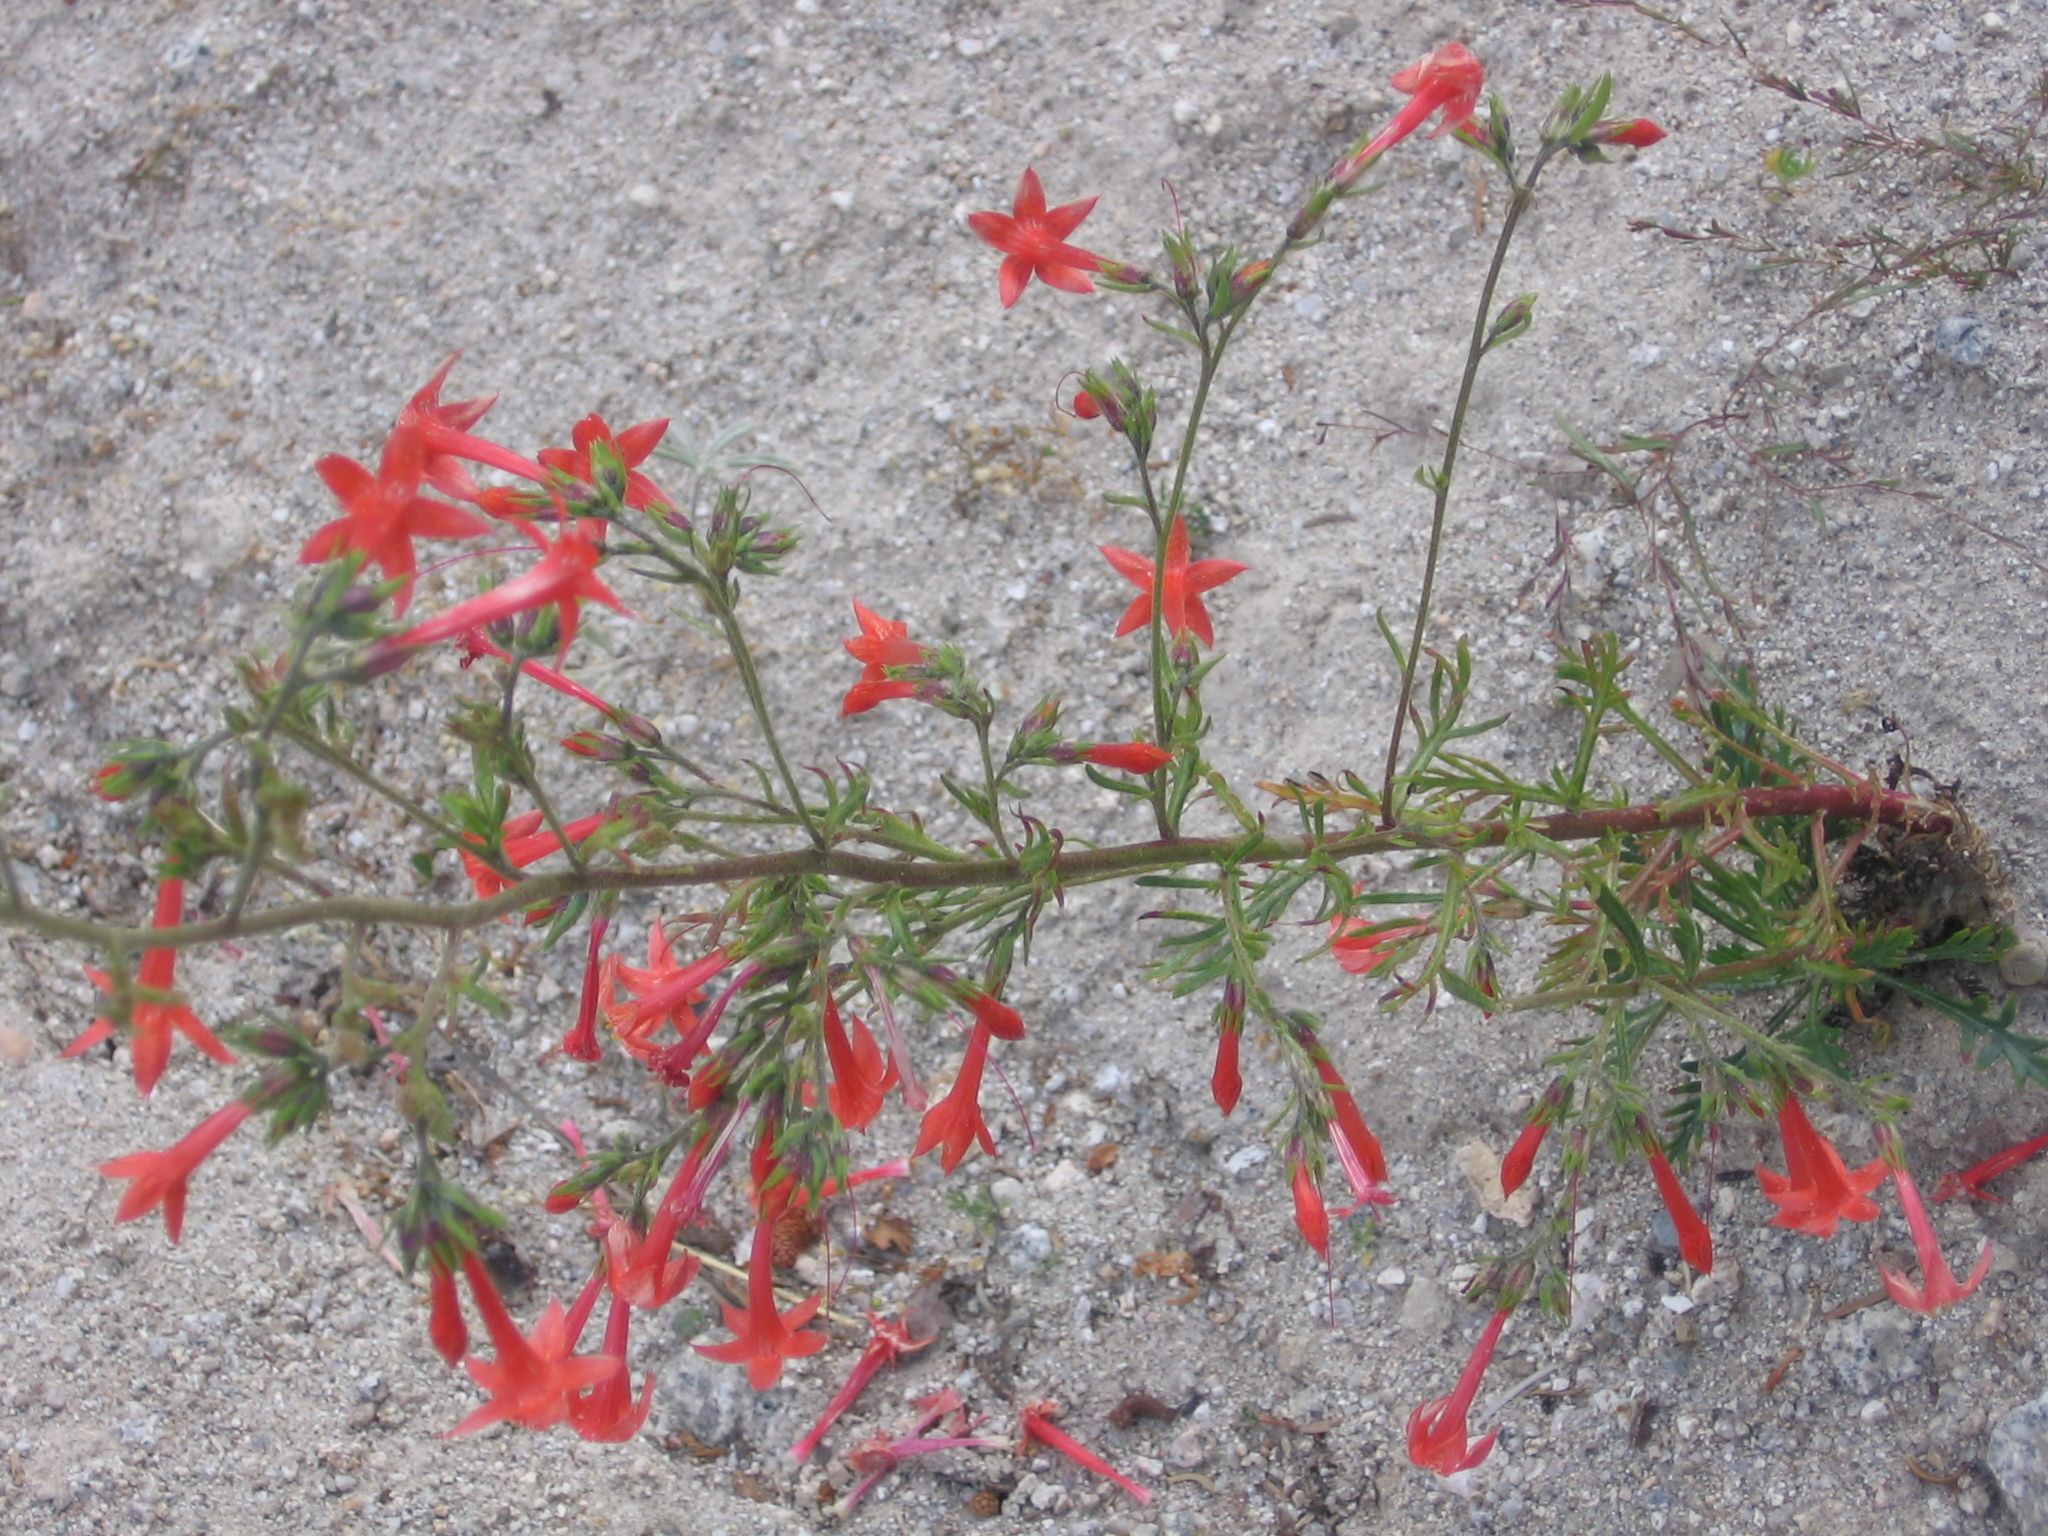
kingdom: Plantae
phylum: Tracheophyta
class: Magnoliopsida
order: Ericales
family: Polemoniaceae
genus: Ipomopsis
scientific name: Ipomopsis aggregata
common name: Scarlet gilia
